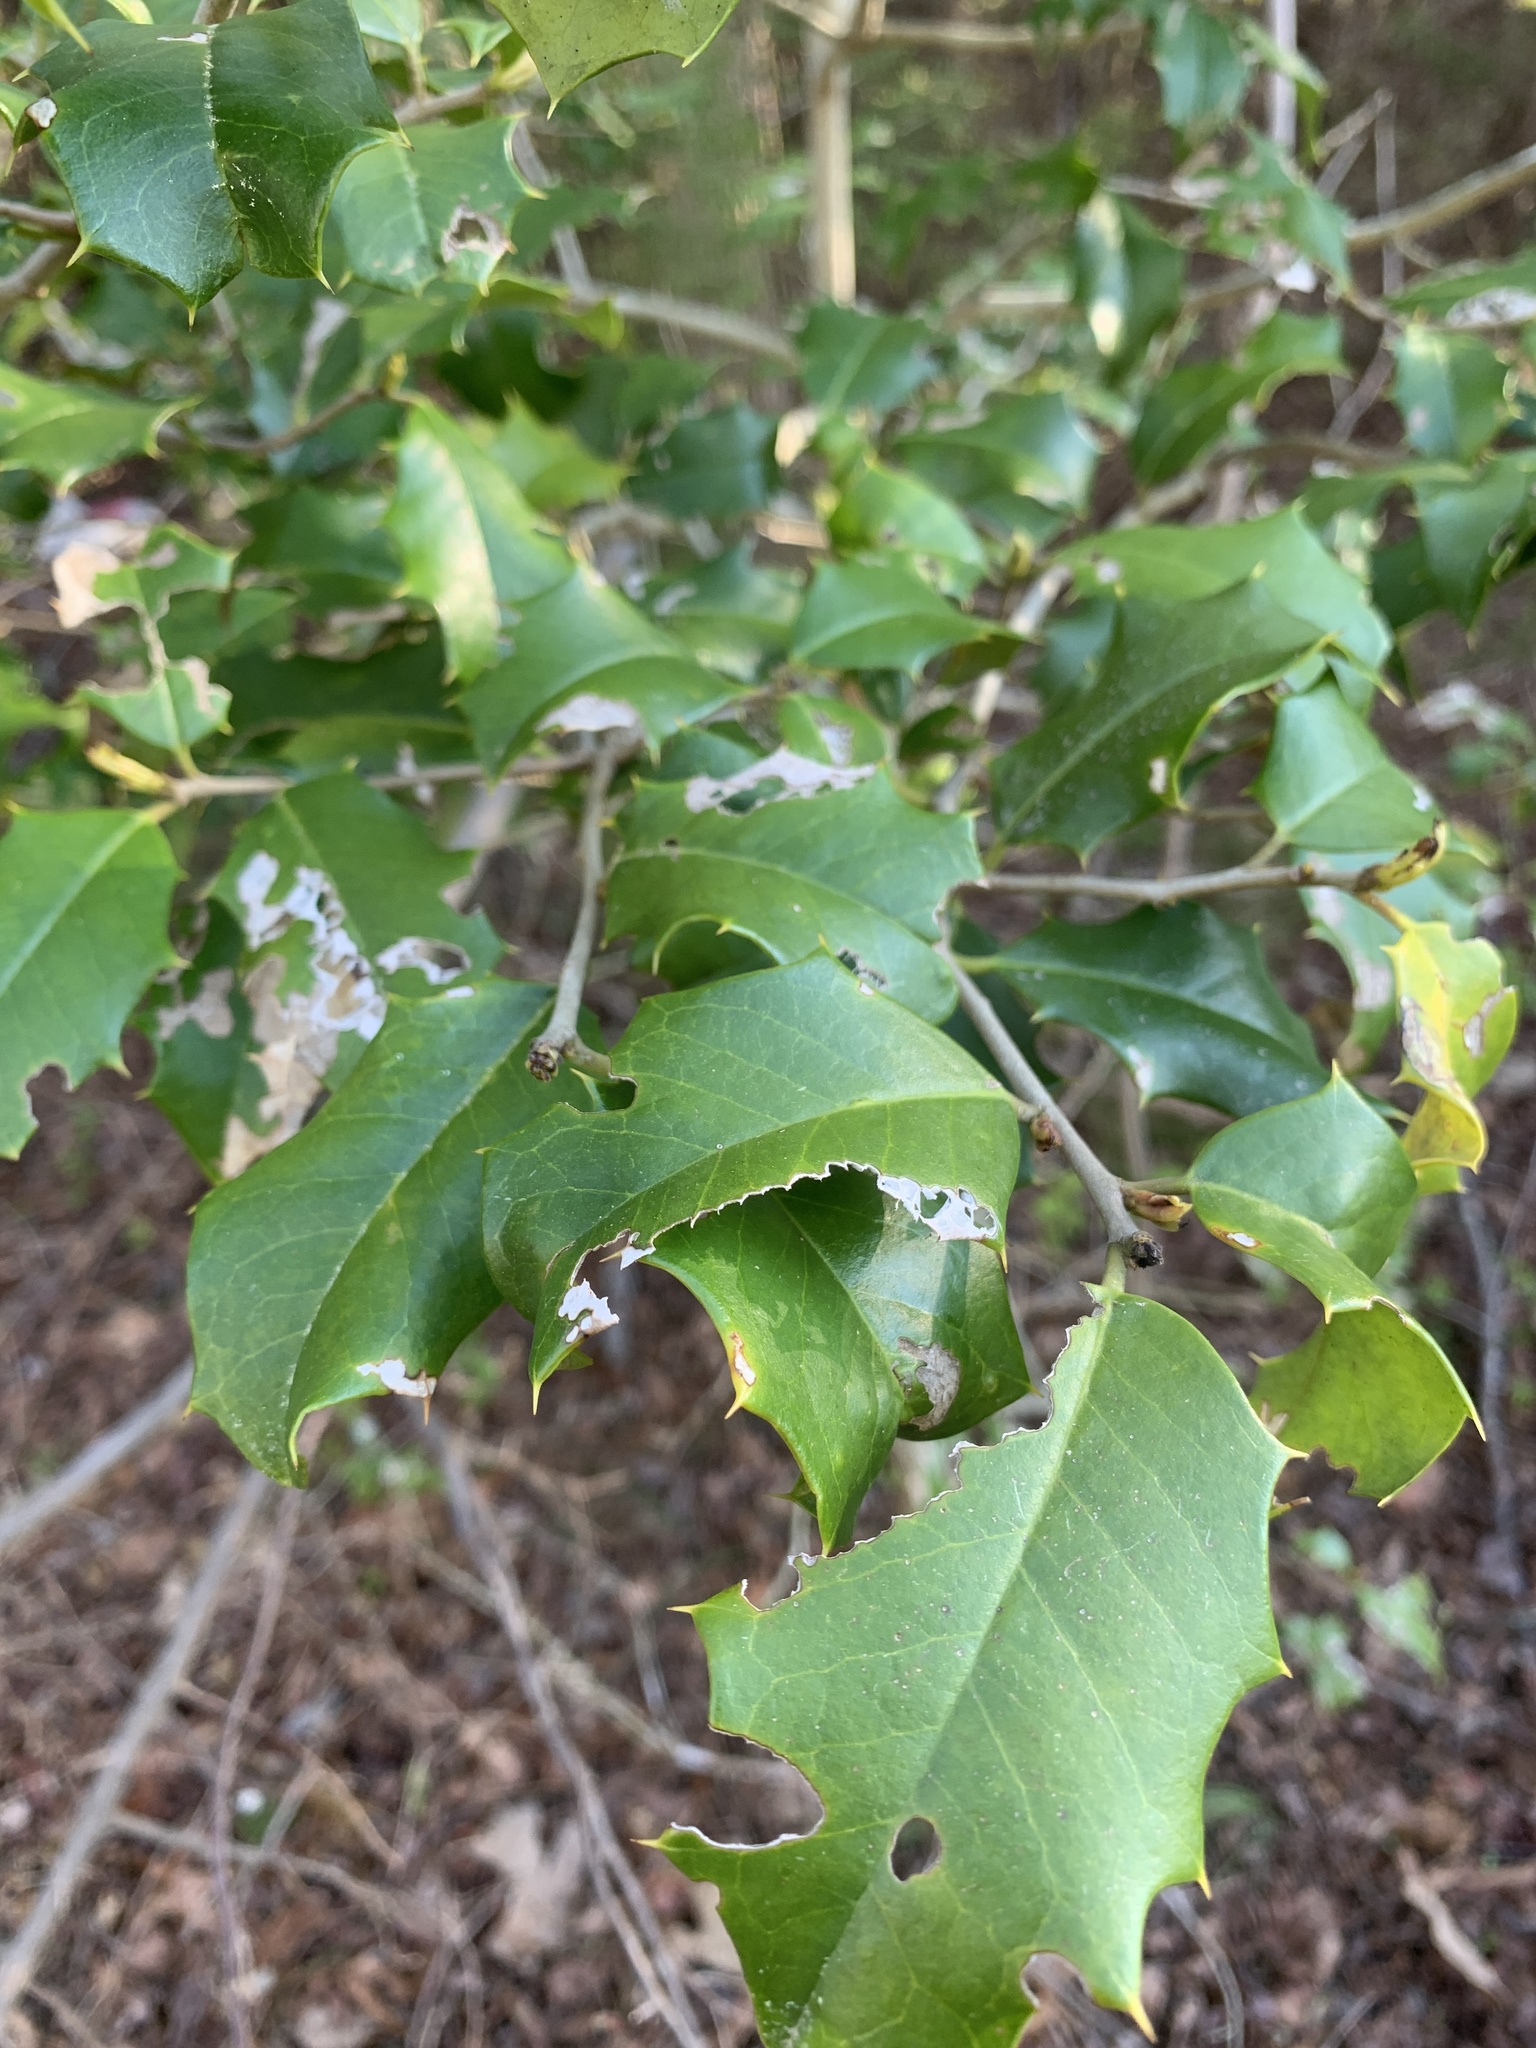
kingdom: Plantae
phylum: Tracheophyta
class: Magnoliopsida
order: Aquifoliales
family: Aquifoliaceae
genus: Ilex
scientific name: Ilex opaca
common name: American holly
